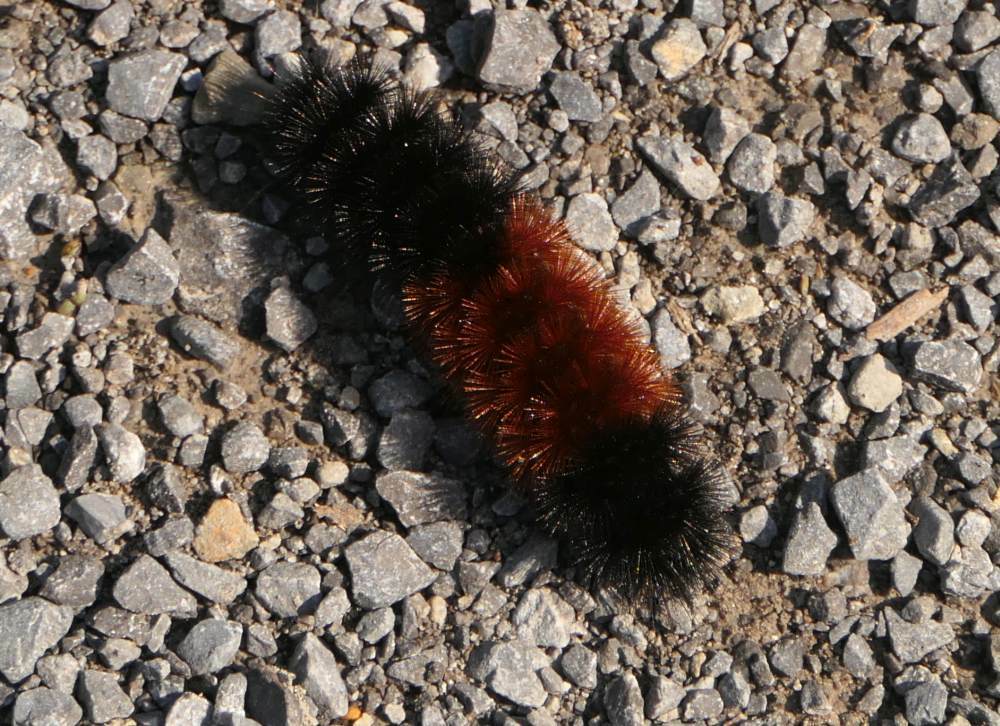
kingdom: Animalia
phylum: Arthropoda
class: Insecta
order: Lepidoptera
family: Erebidae
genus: Pyrrharctia
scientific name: Pyrrharctia isabella
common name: Isabella tiger moth
